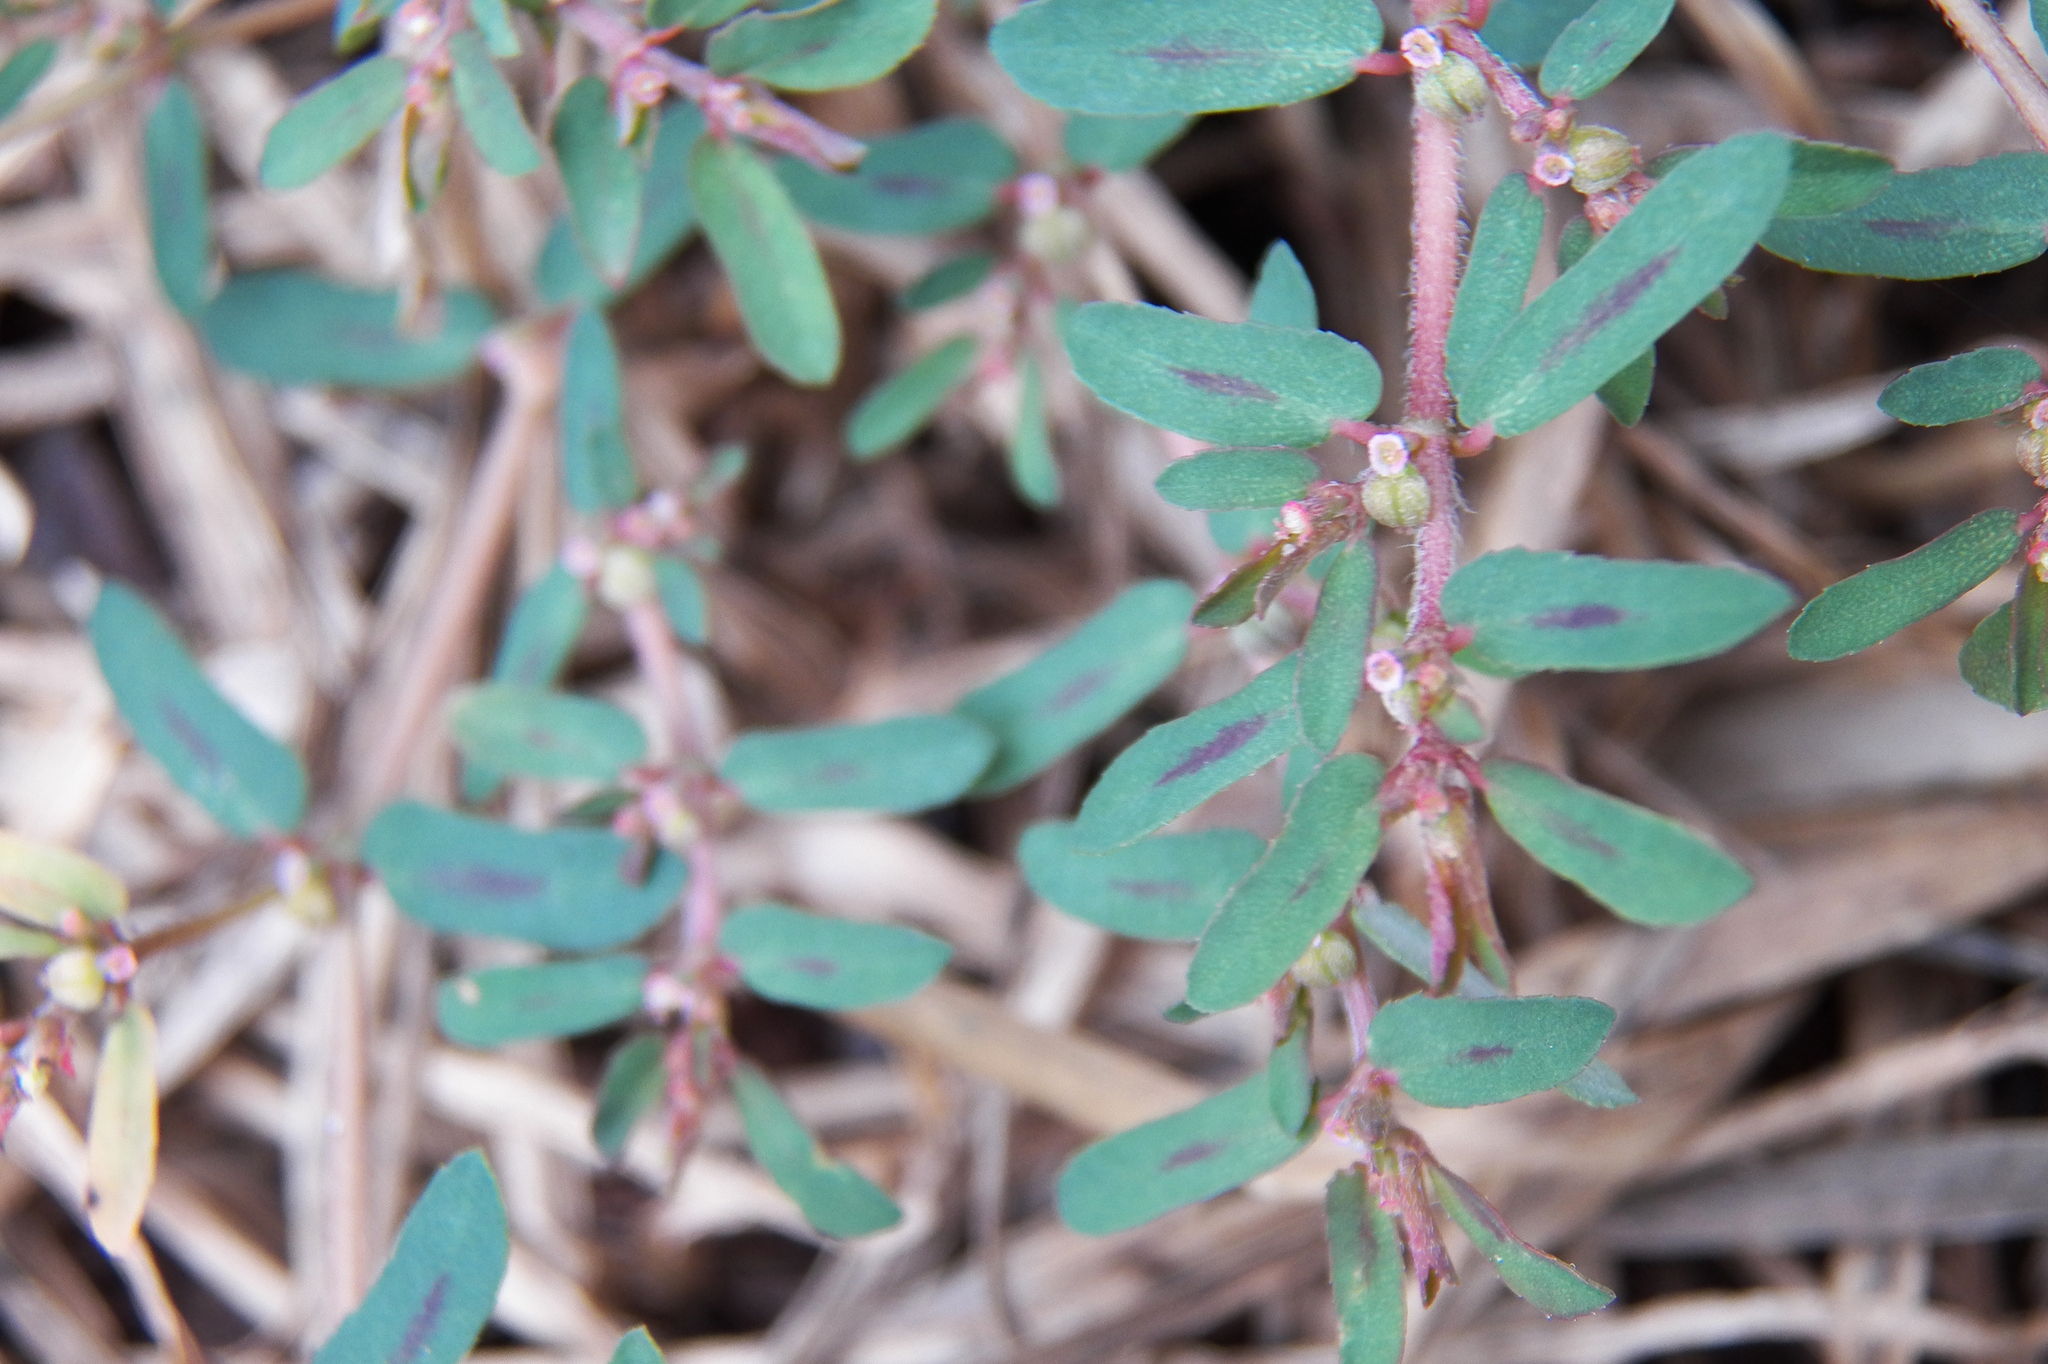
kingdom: Plantae
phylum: Tracheophyta
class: Magnoliopsida
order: Malpighiales
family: Euphorbiaceae
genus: Euphorbia
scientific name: Euphorbia maculata
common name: Spotted spurge
